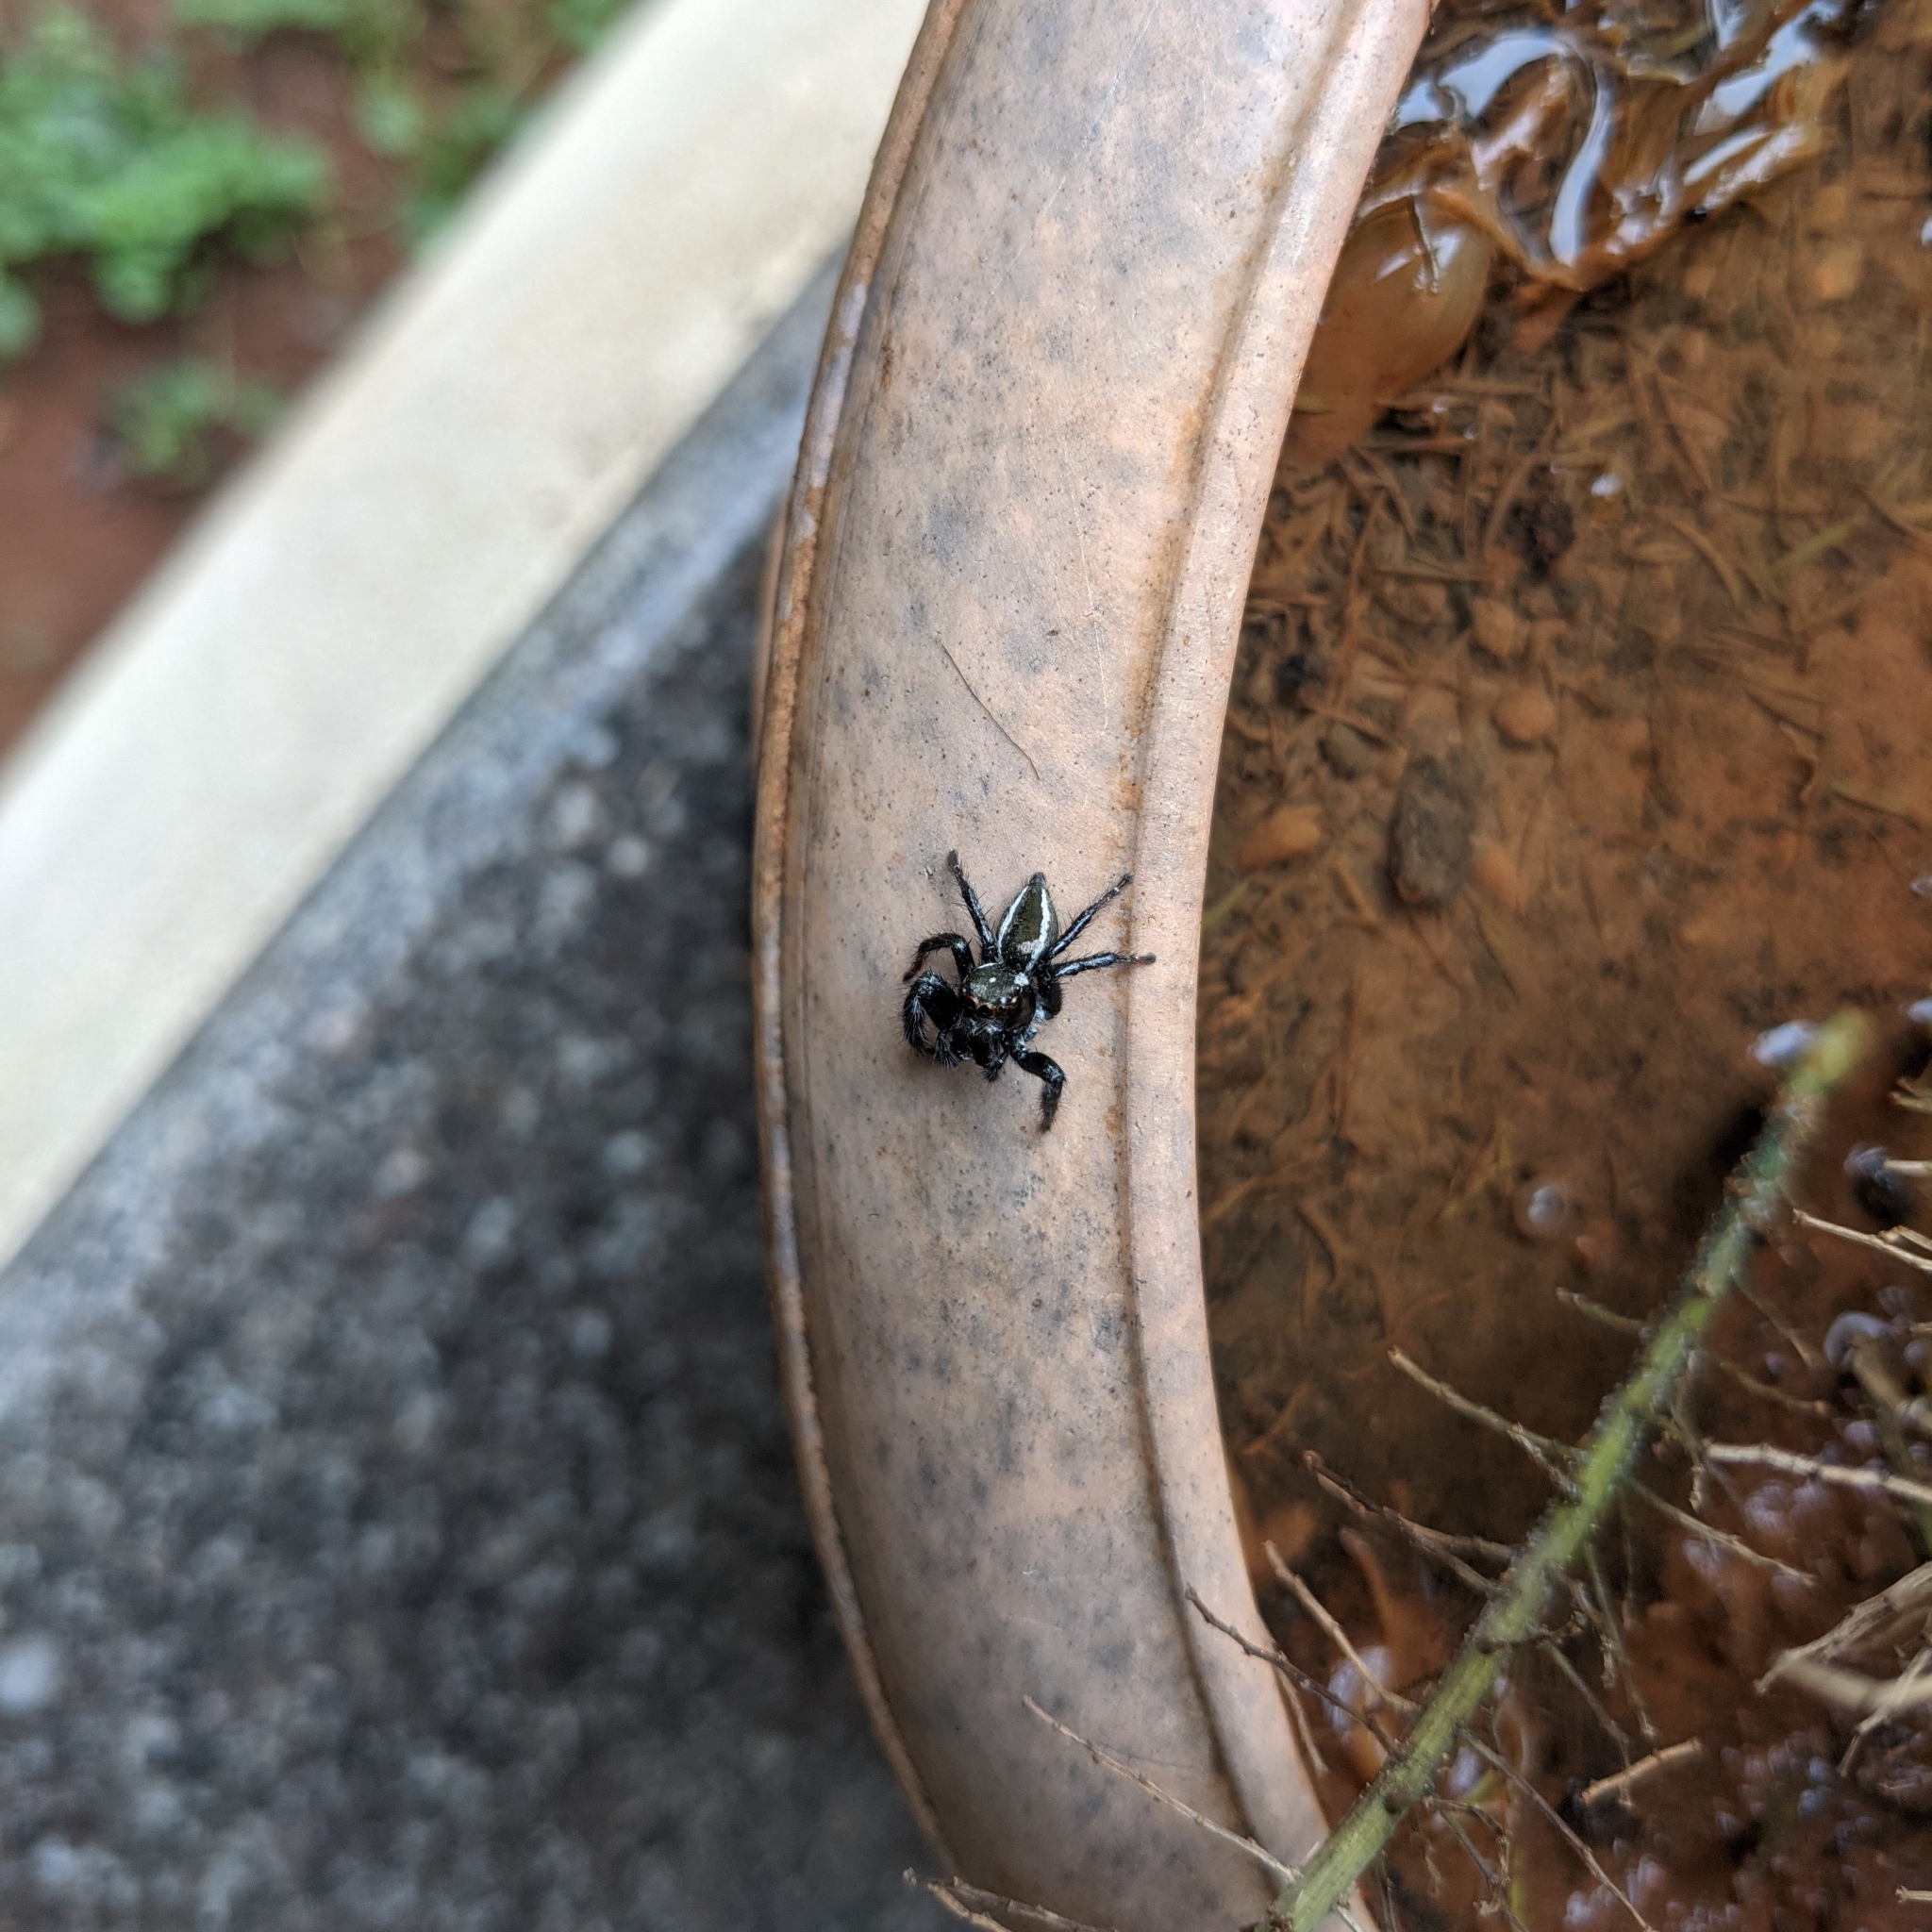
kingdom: Animalia
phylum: Arthropoda
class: Arachnida
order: Araneae
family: Salticidae
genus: Carrhotus
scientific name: Carrhotus viduus
